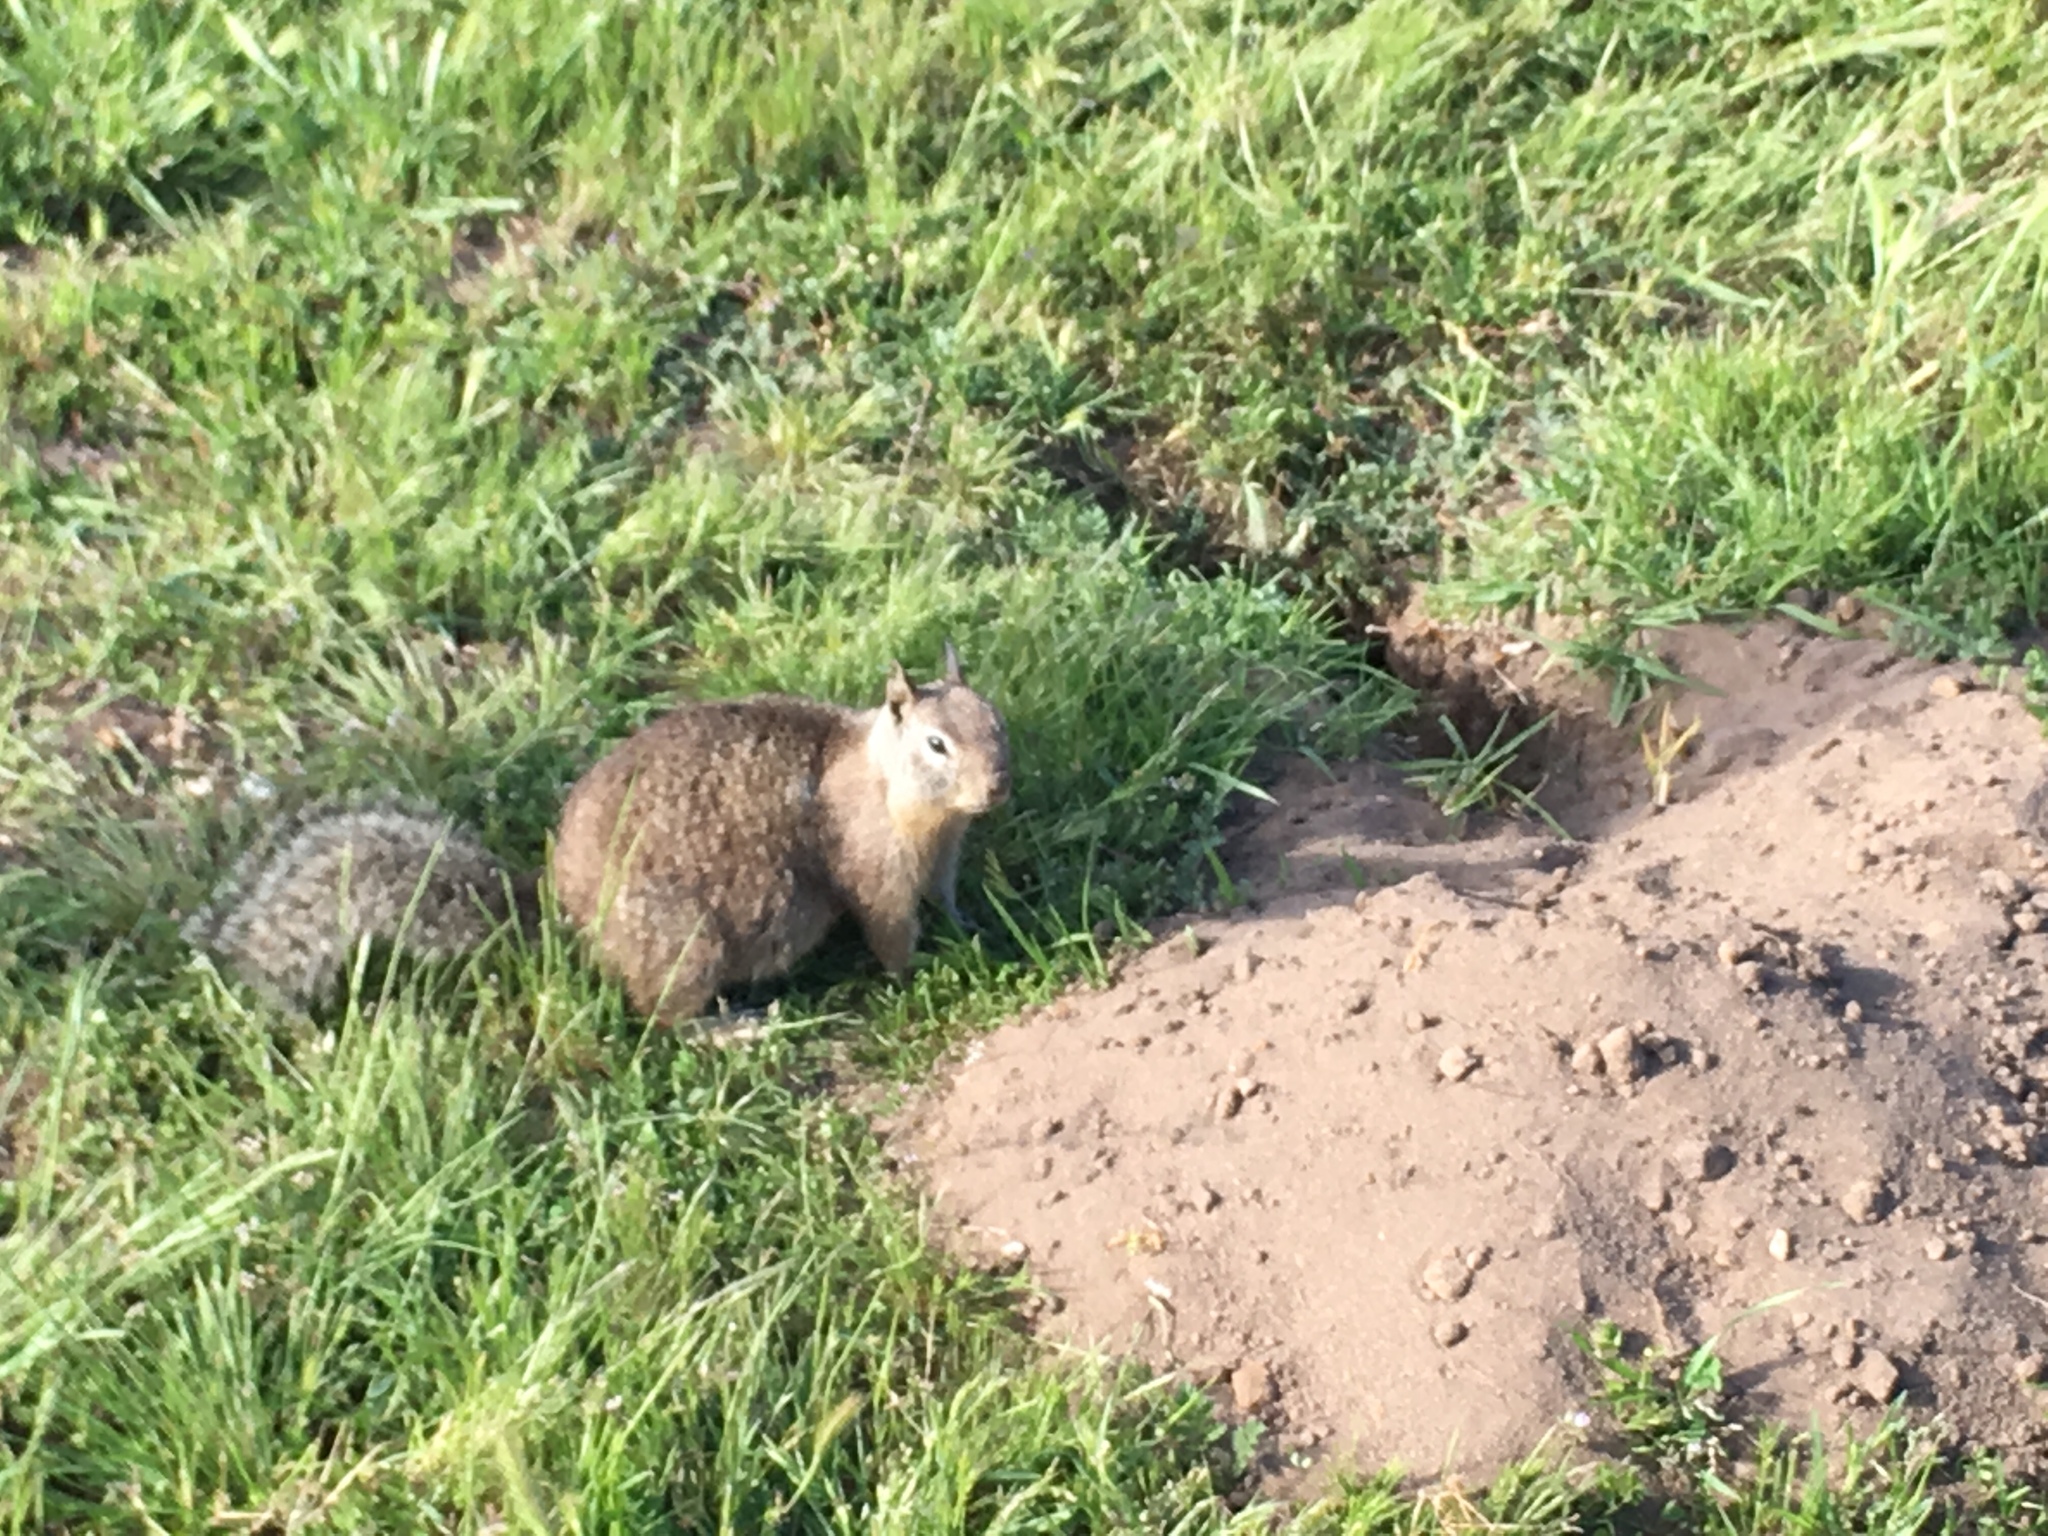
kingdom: Animalia
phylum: Chordata
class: Mammalia
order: Rodentia
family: Sciuridae
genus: Otospermophilus
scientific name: Otospermophilus beecheyi
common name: California ground squirrel
